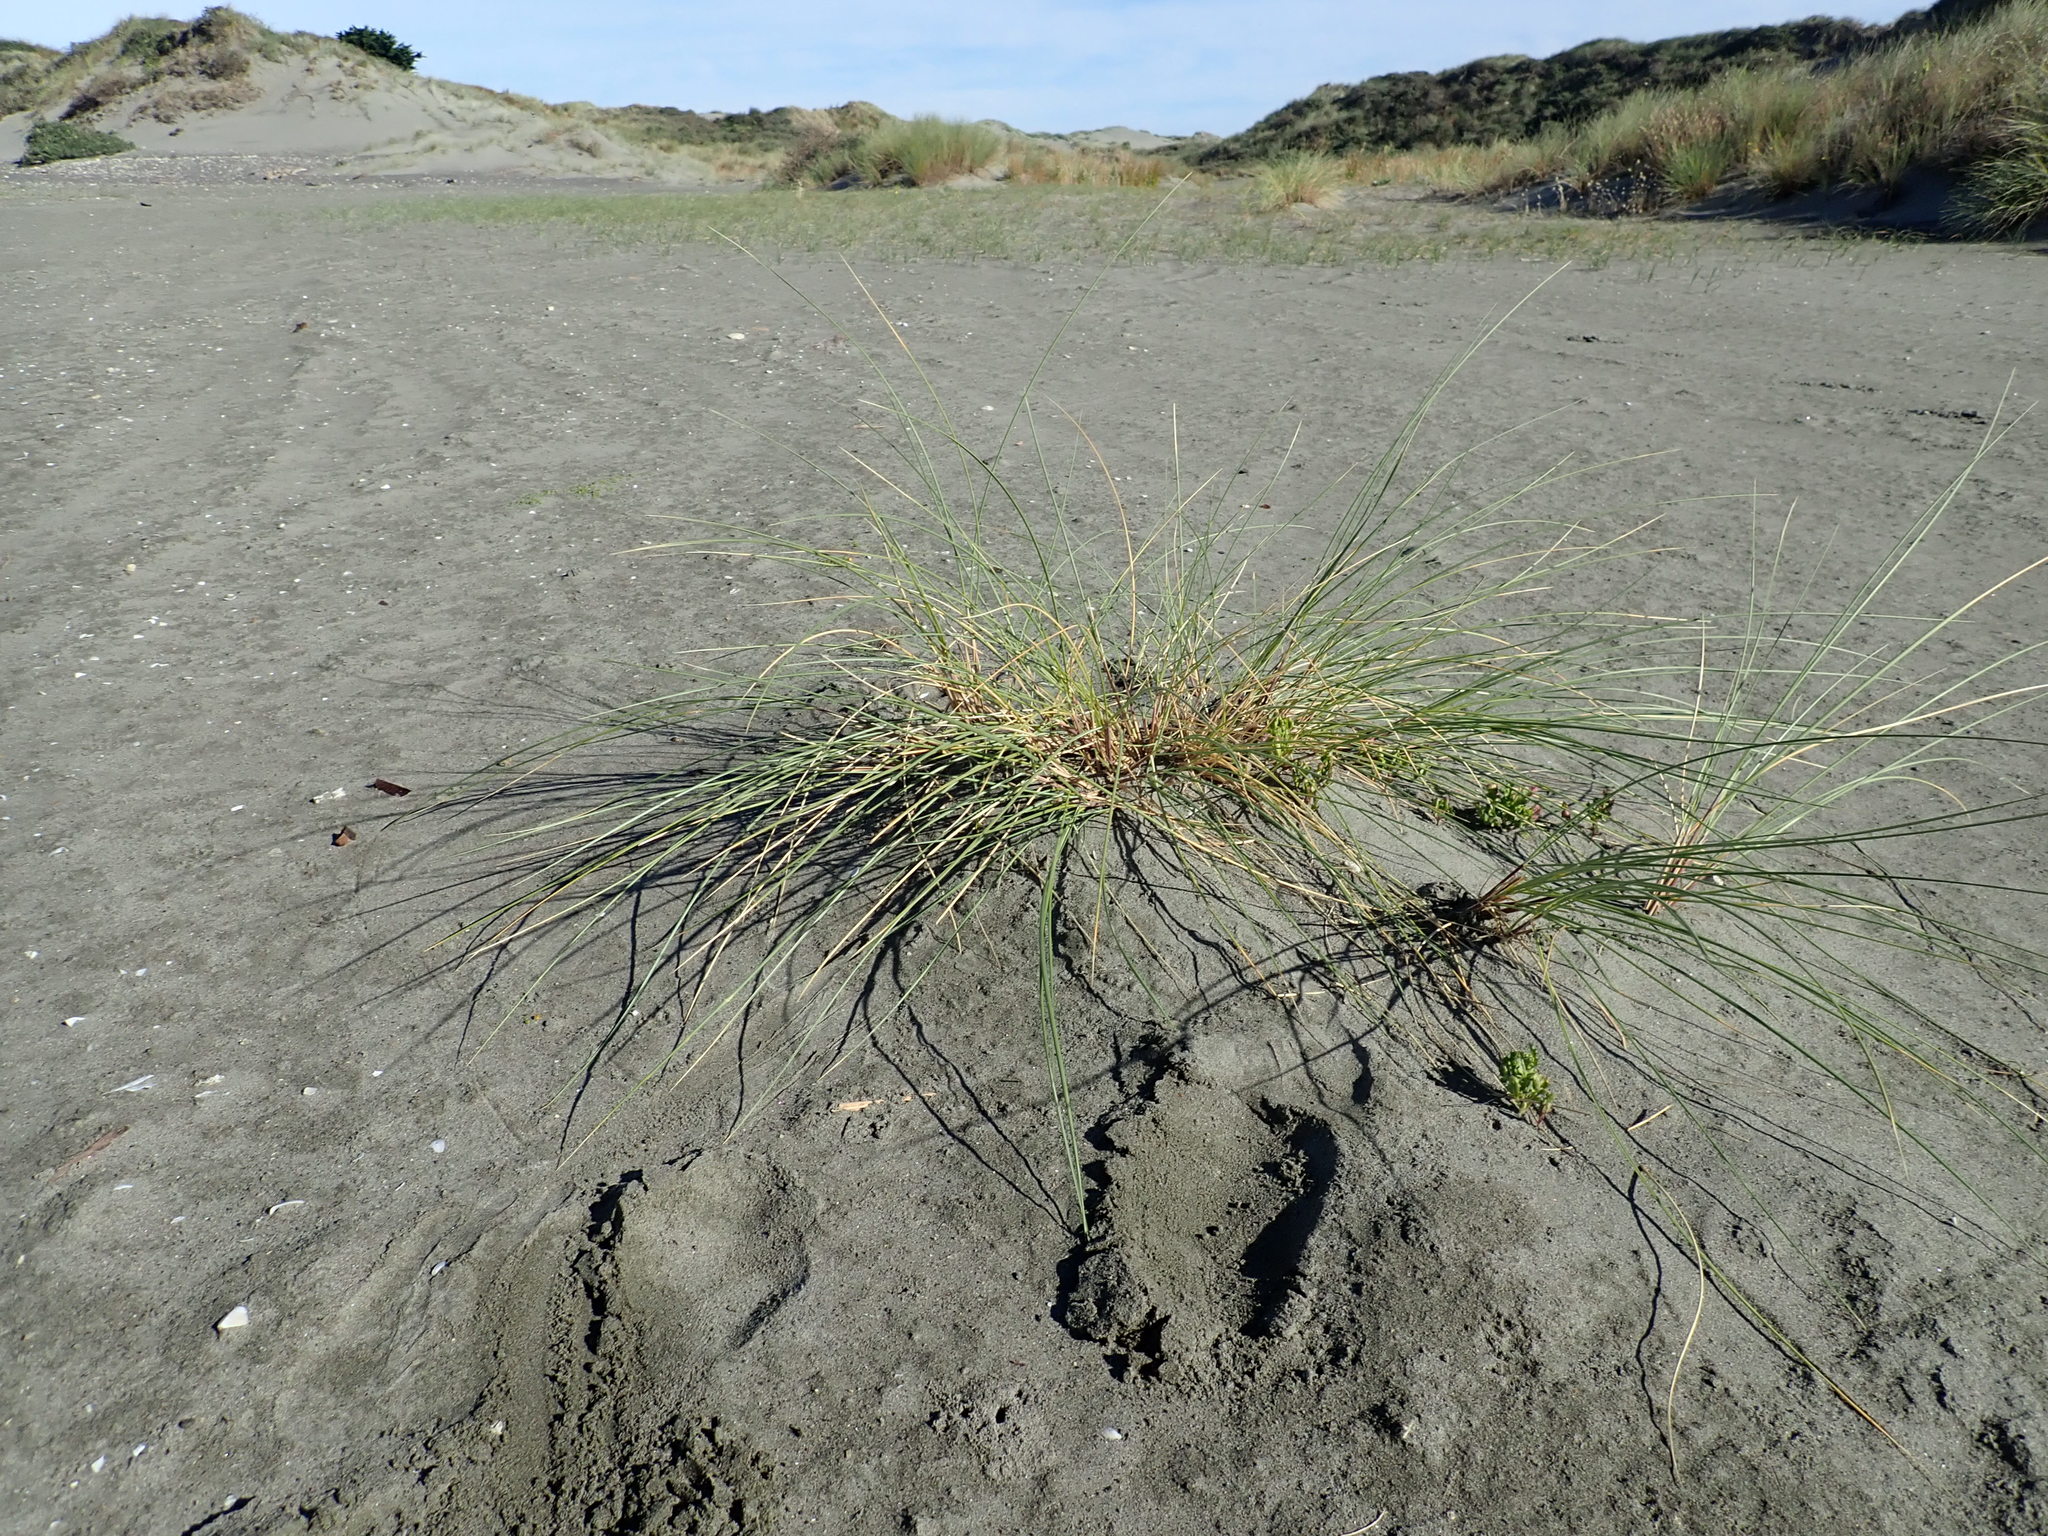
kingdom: Plantae
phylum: Tracheophyta
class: Liliopsida
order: Poales
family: Poaceae
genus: Calamagrostis
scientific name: Calamagrostis arenaria
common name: European beachgrass
